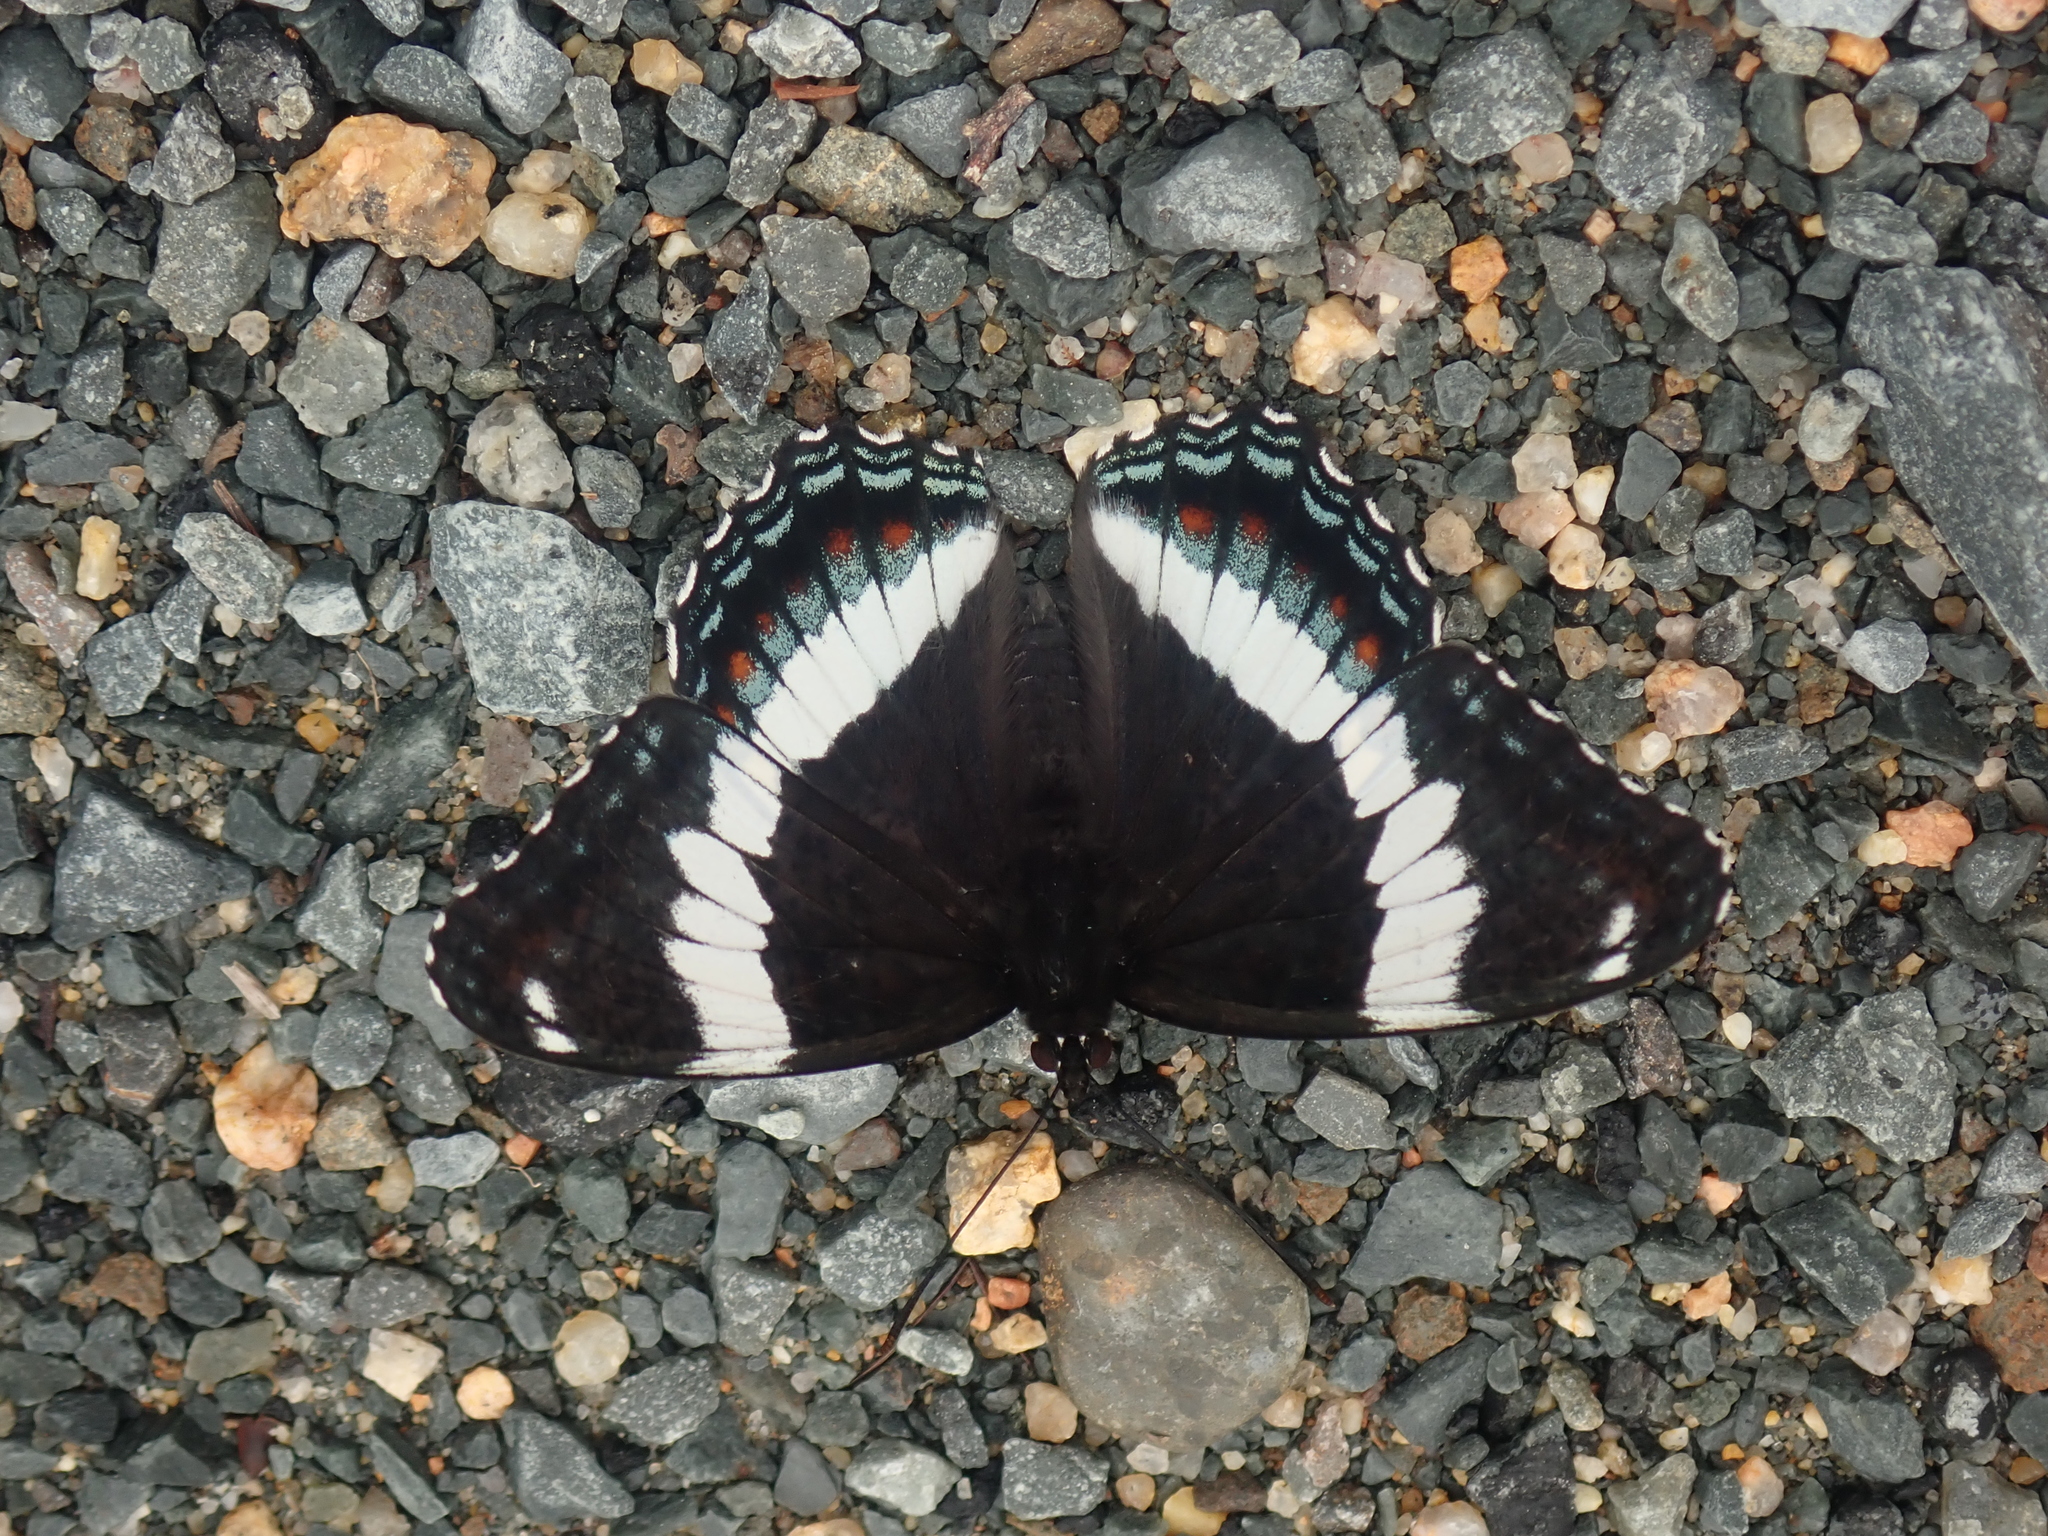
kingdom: Animalia
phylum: Arthropoda
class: Insecta
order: Lepidoptera
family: Nymphalidae
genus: Limenitis
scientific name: Limenitis arthemis
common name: Red-spotted admiral
